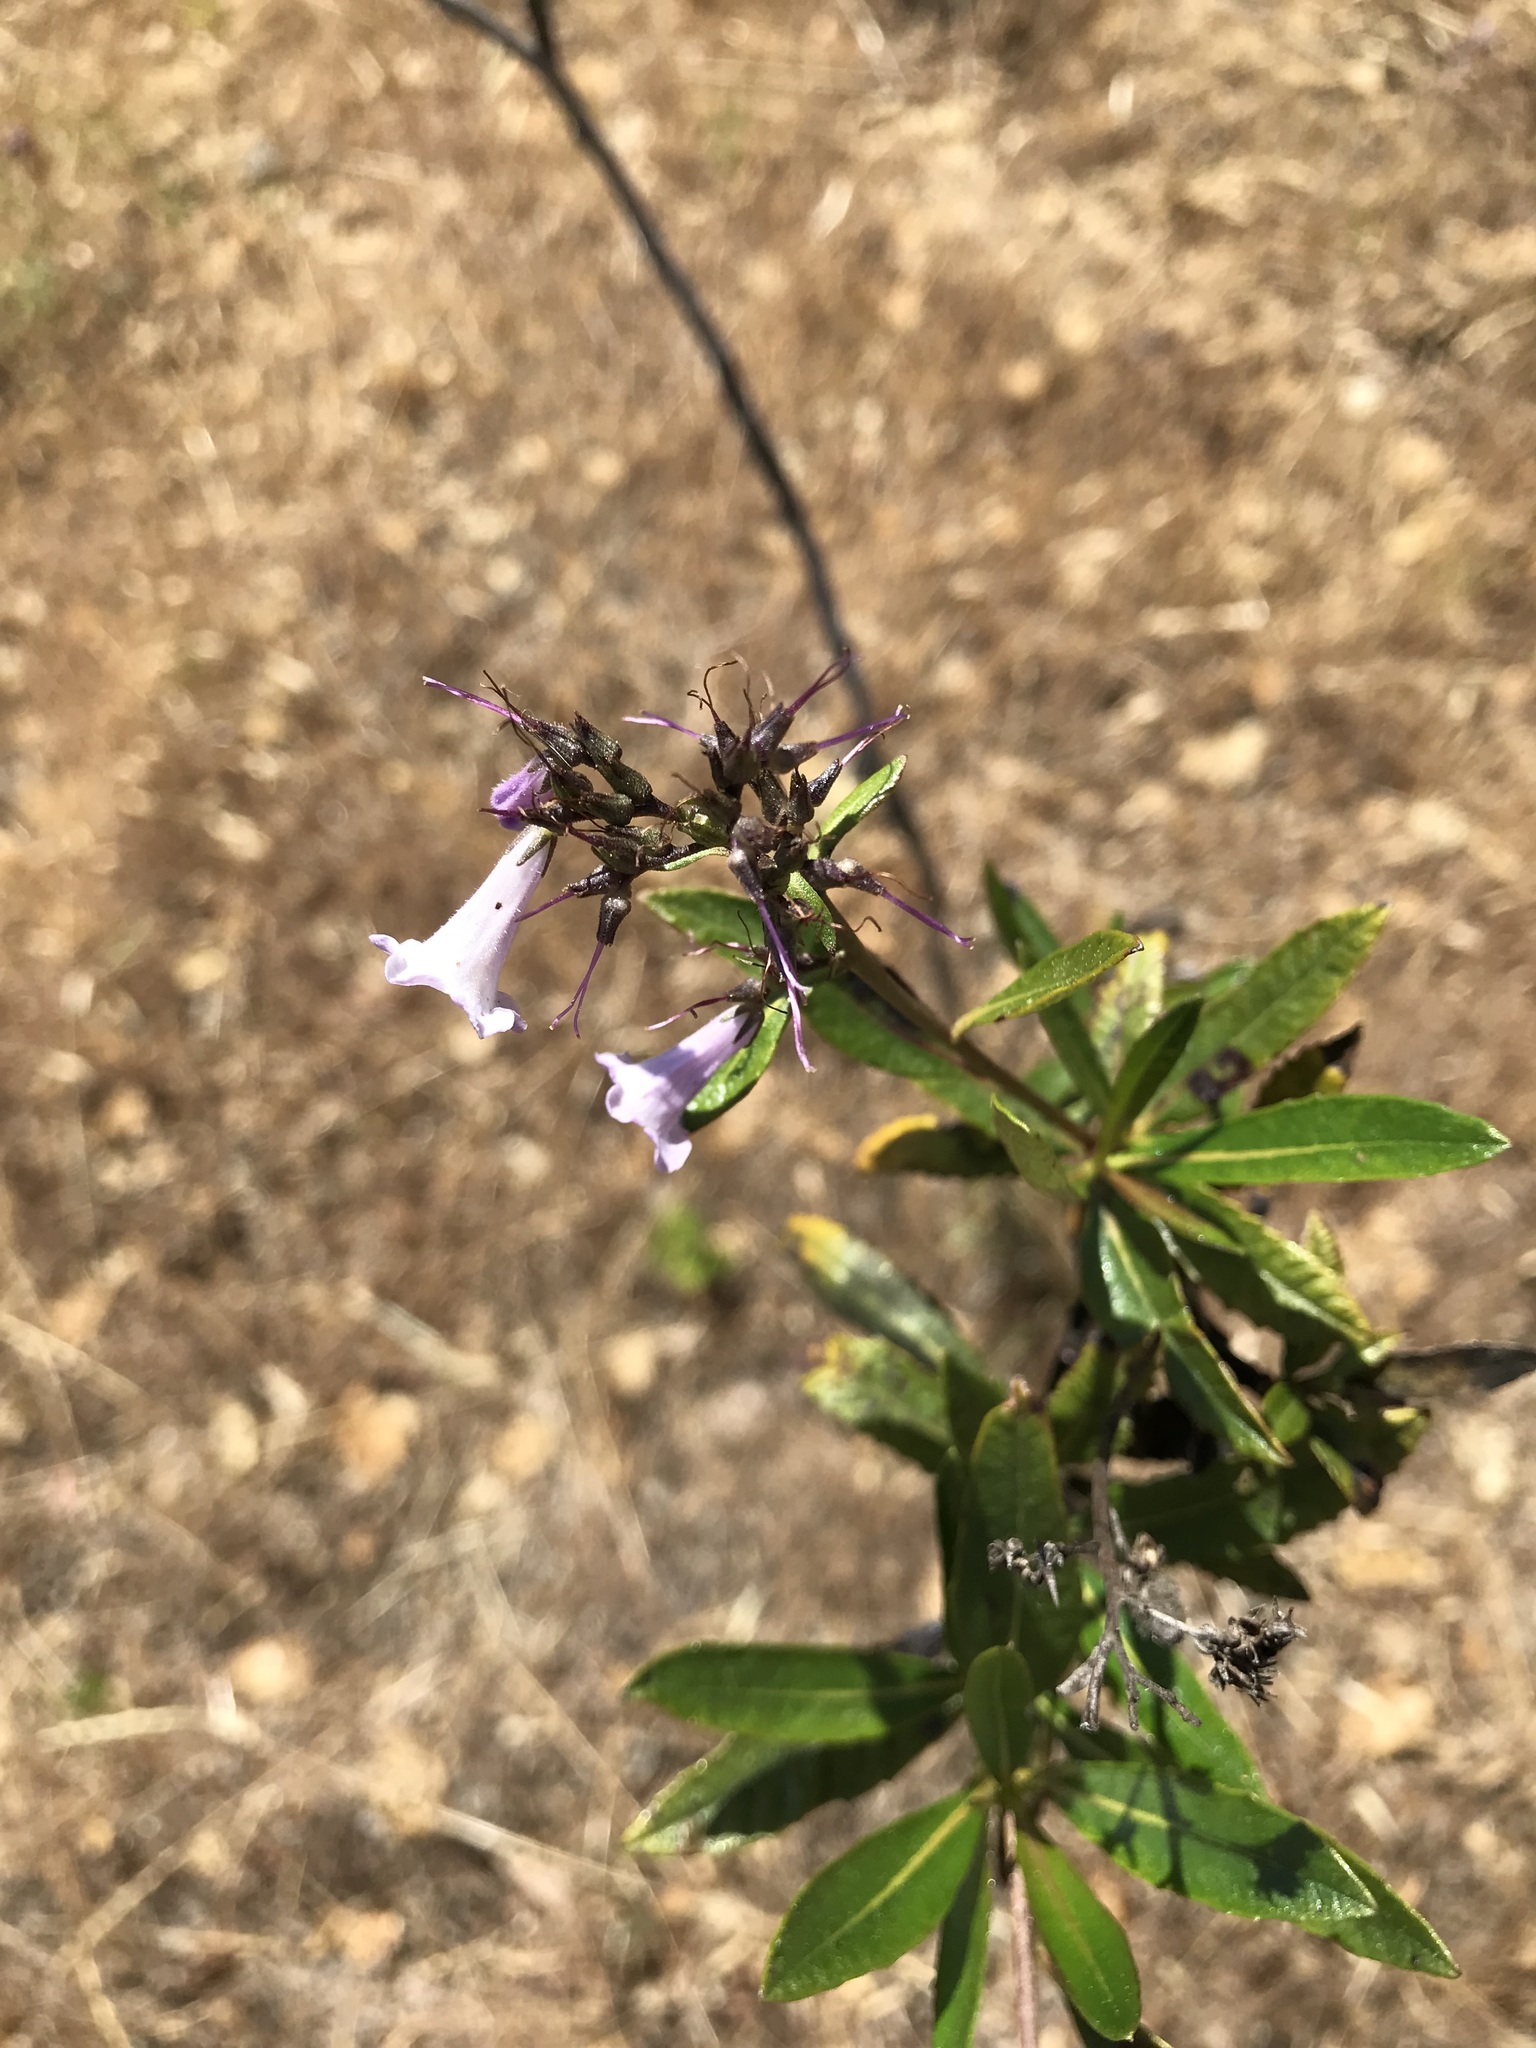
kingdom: Plantae
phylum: Tracheophyta
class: Magnoliopsida
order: Boraginales
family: Namaceae
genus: Eriodictyon
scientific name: Eriodictyon californicum
